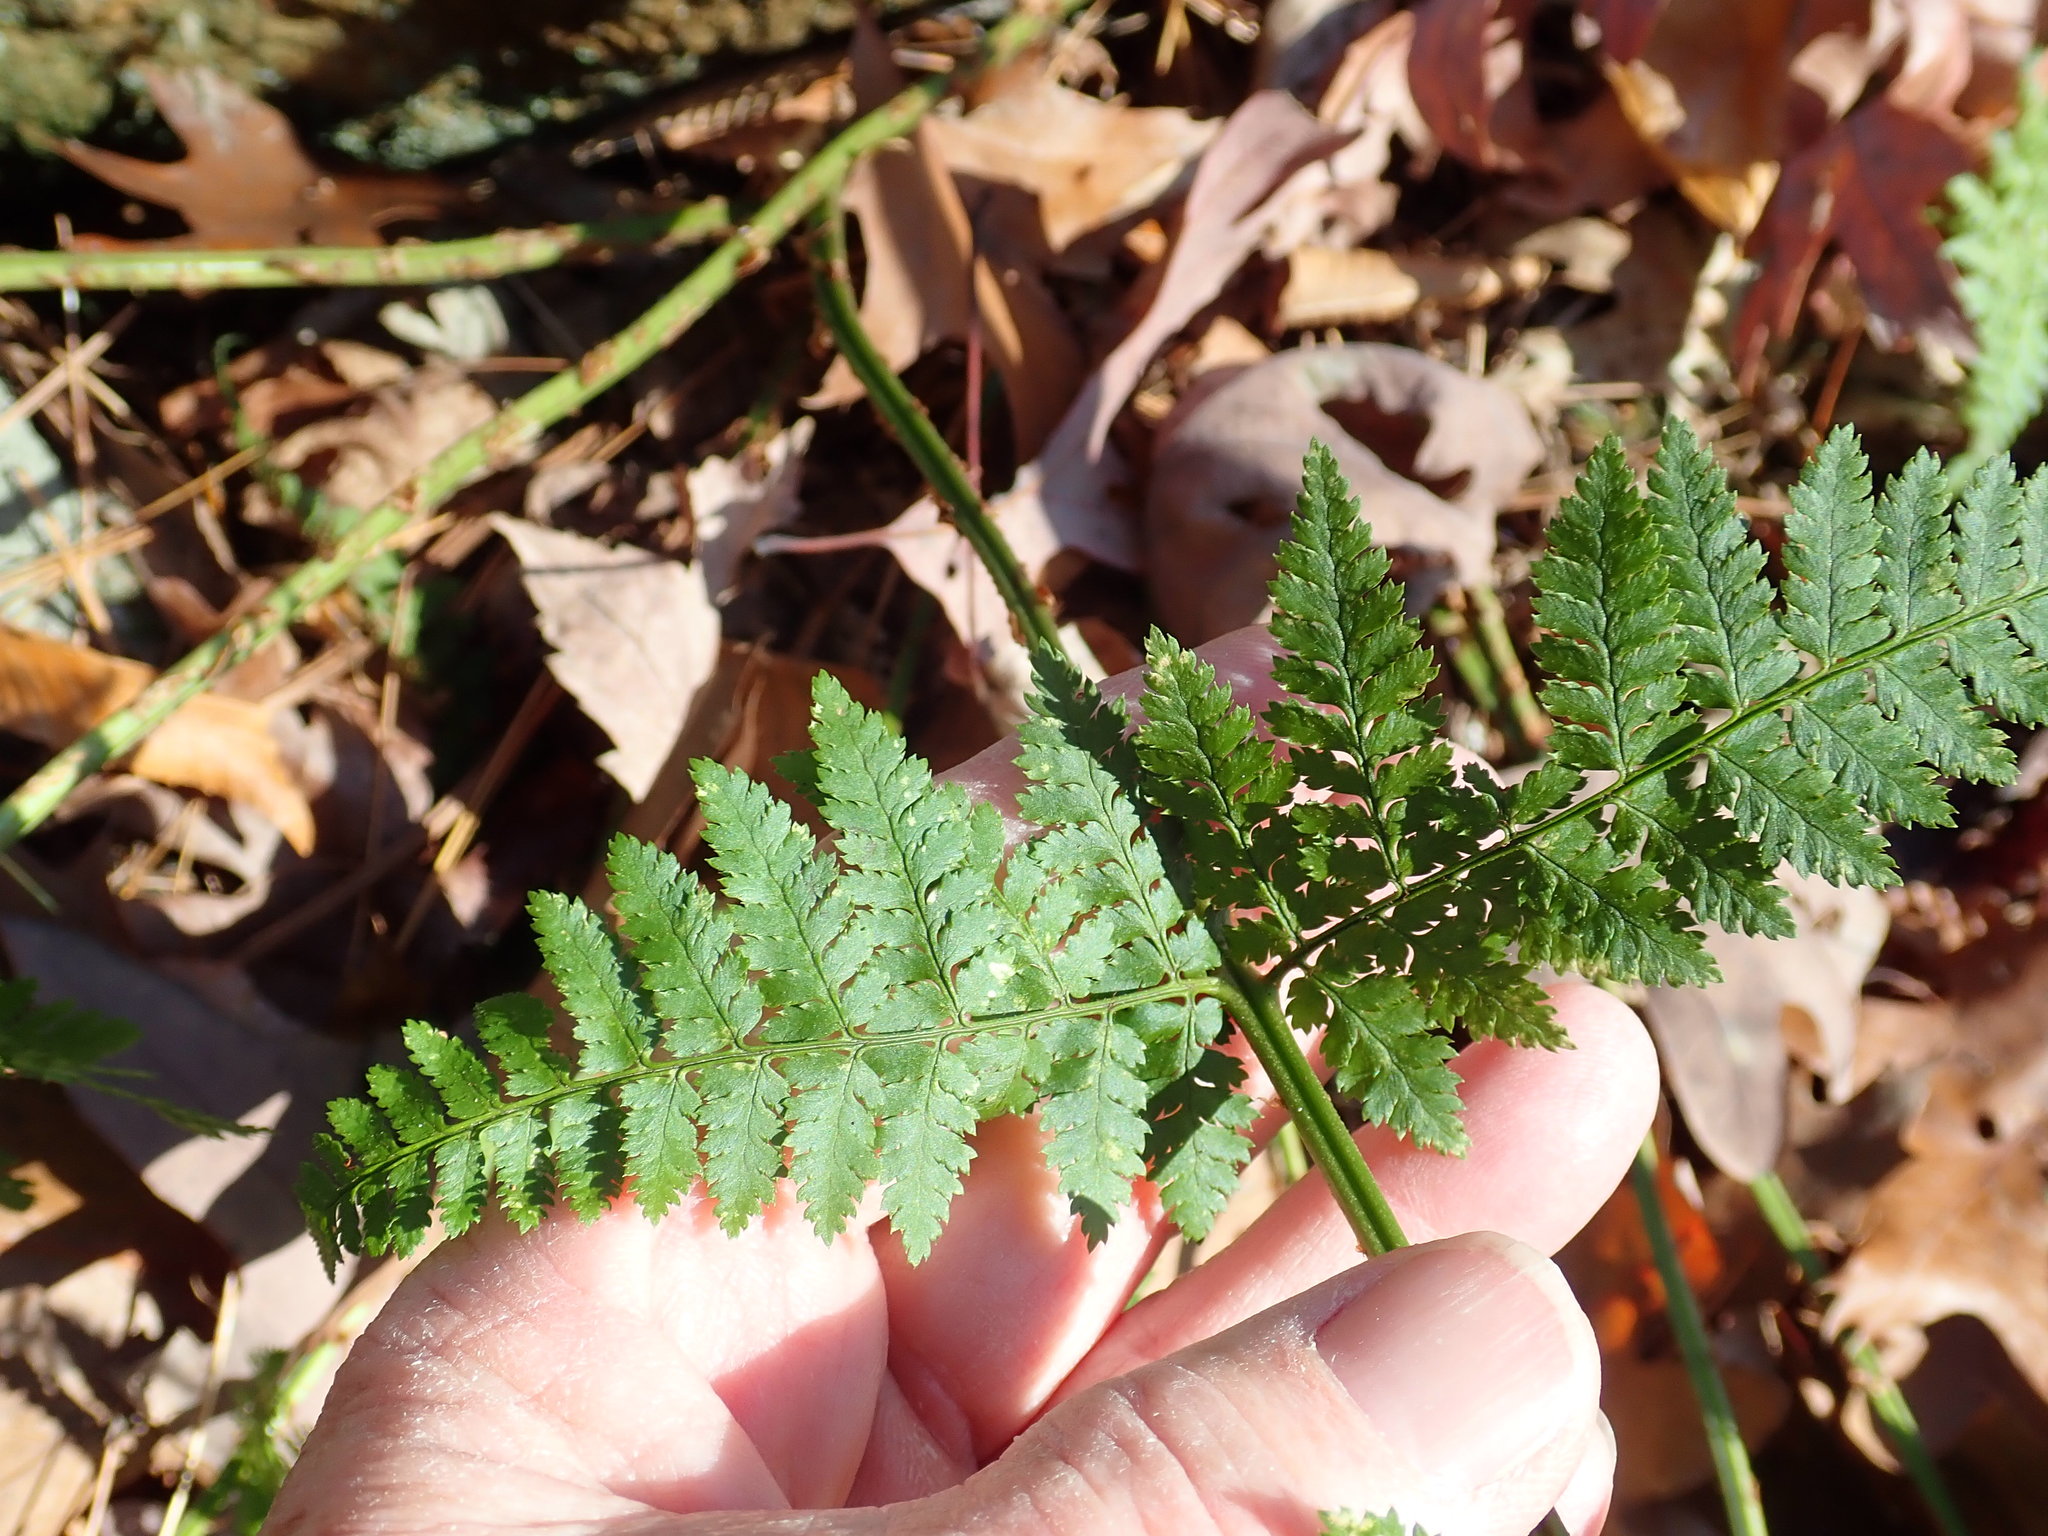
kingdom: Plantae
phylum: Tracheophyta
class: Polypodiopsida
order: Polypodiales
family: Dryopteridaceae
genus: Dryopteris
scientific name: Dryopteris intermedia
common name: Evergreen wood fern
